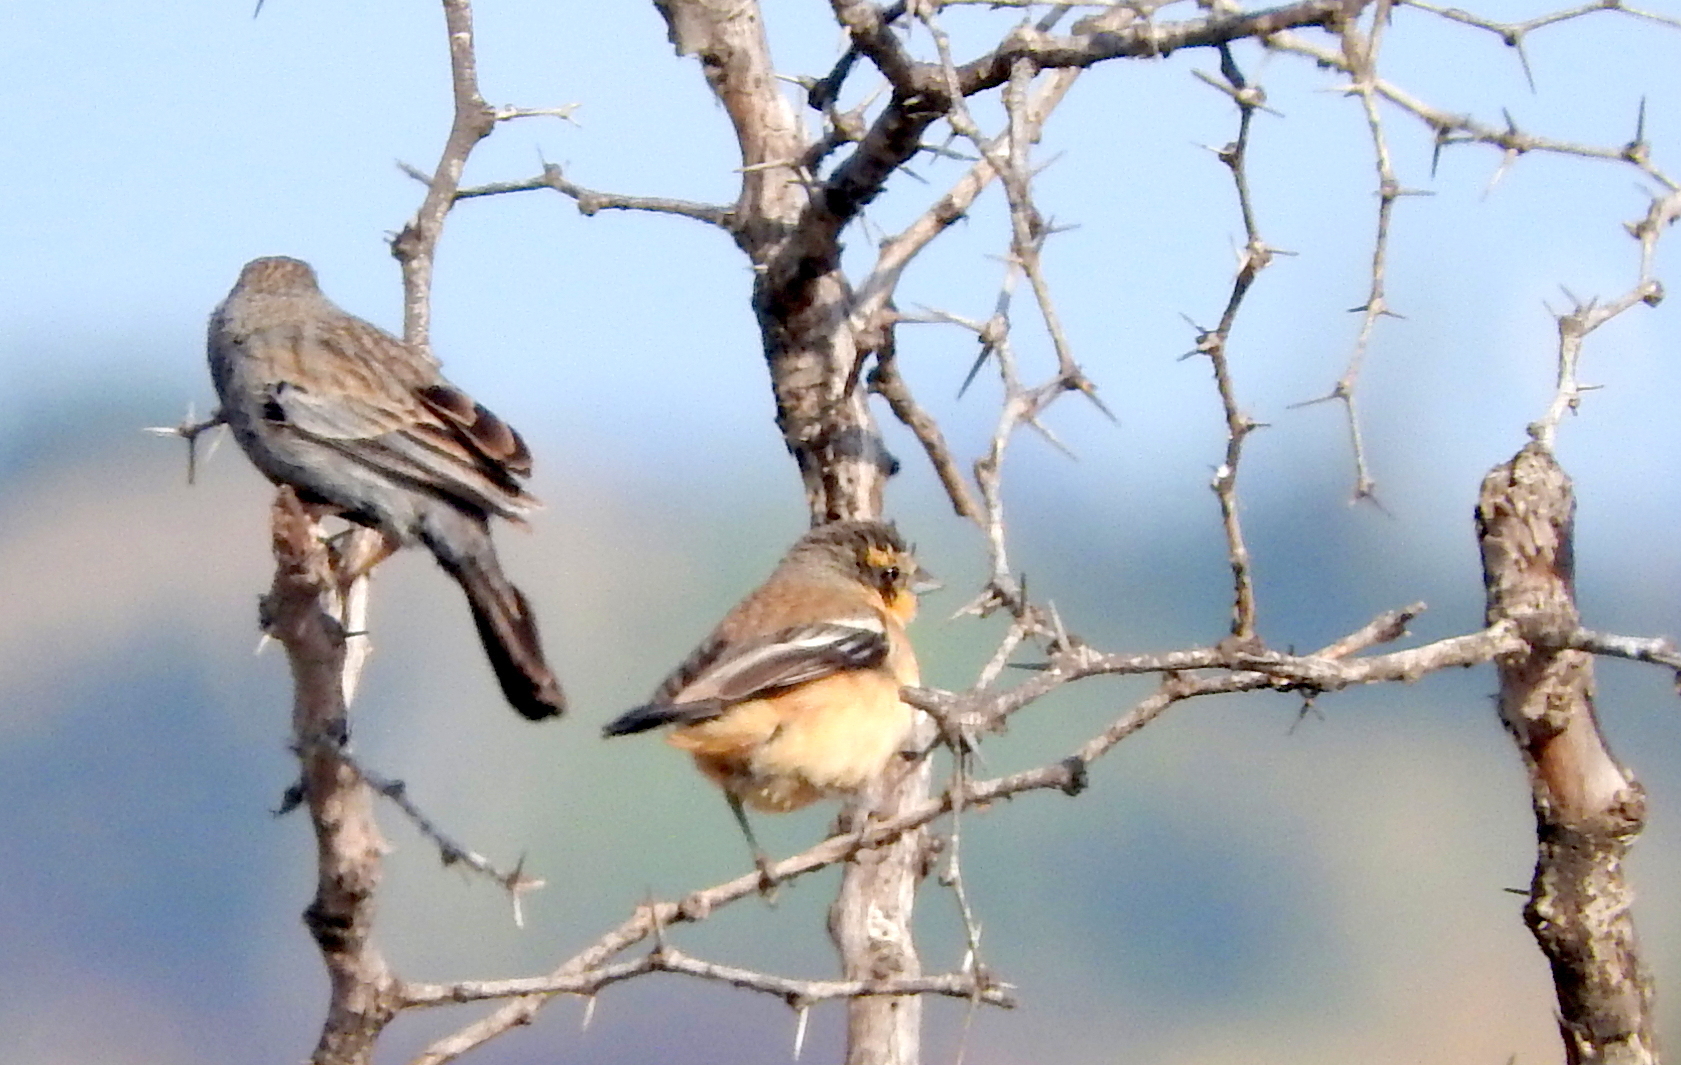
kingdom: Animalia
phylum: Chordata
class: Aves
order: Passeriformes
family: Thraupidae
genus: Poospiza
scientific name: Poospiza ornata
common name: Cinnamon warbling finch
